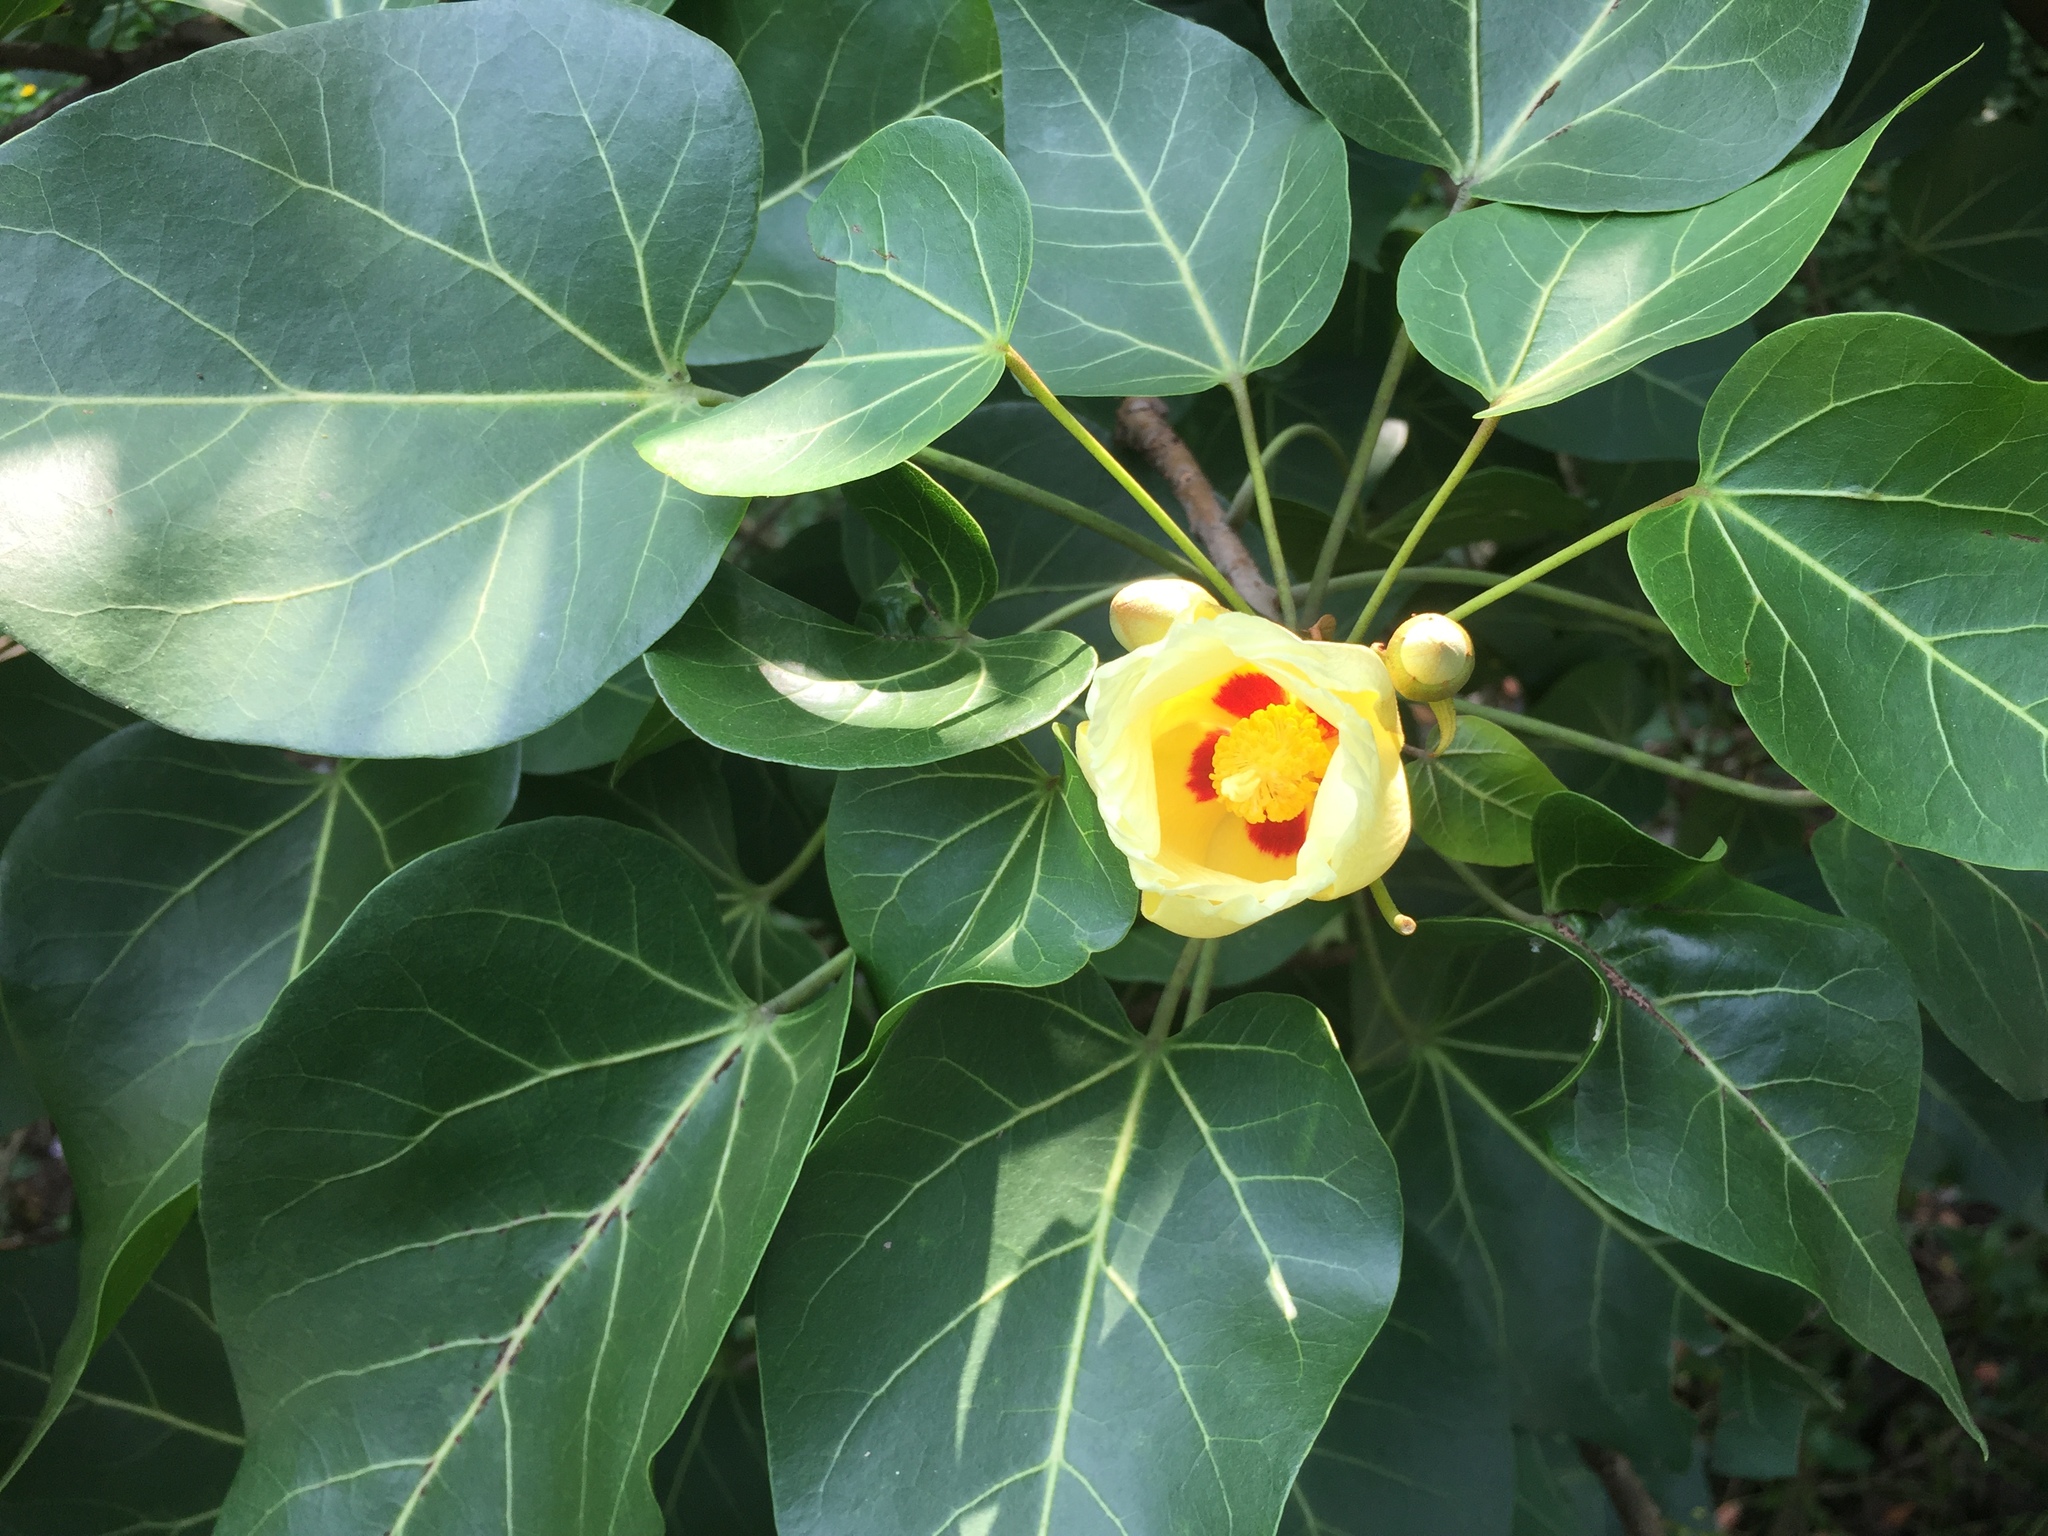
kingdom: Plantae
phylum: Tracheophyta
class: Magnoliopsida
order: Malvales
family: Malvaceae
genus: Thespesia
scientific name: Thespesia populnea
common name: Seaside mahoe
